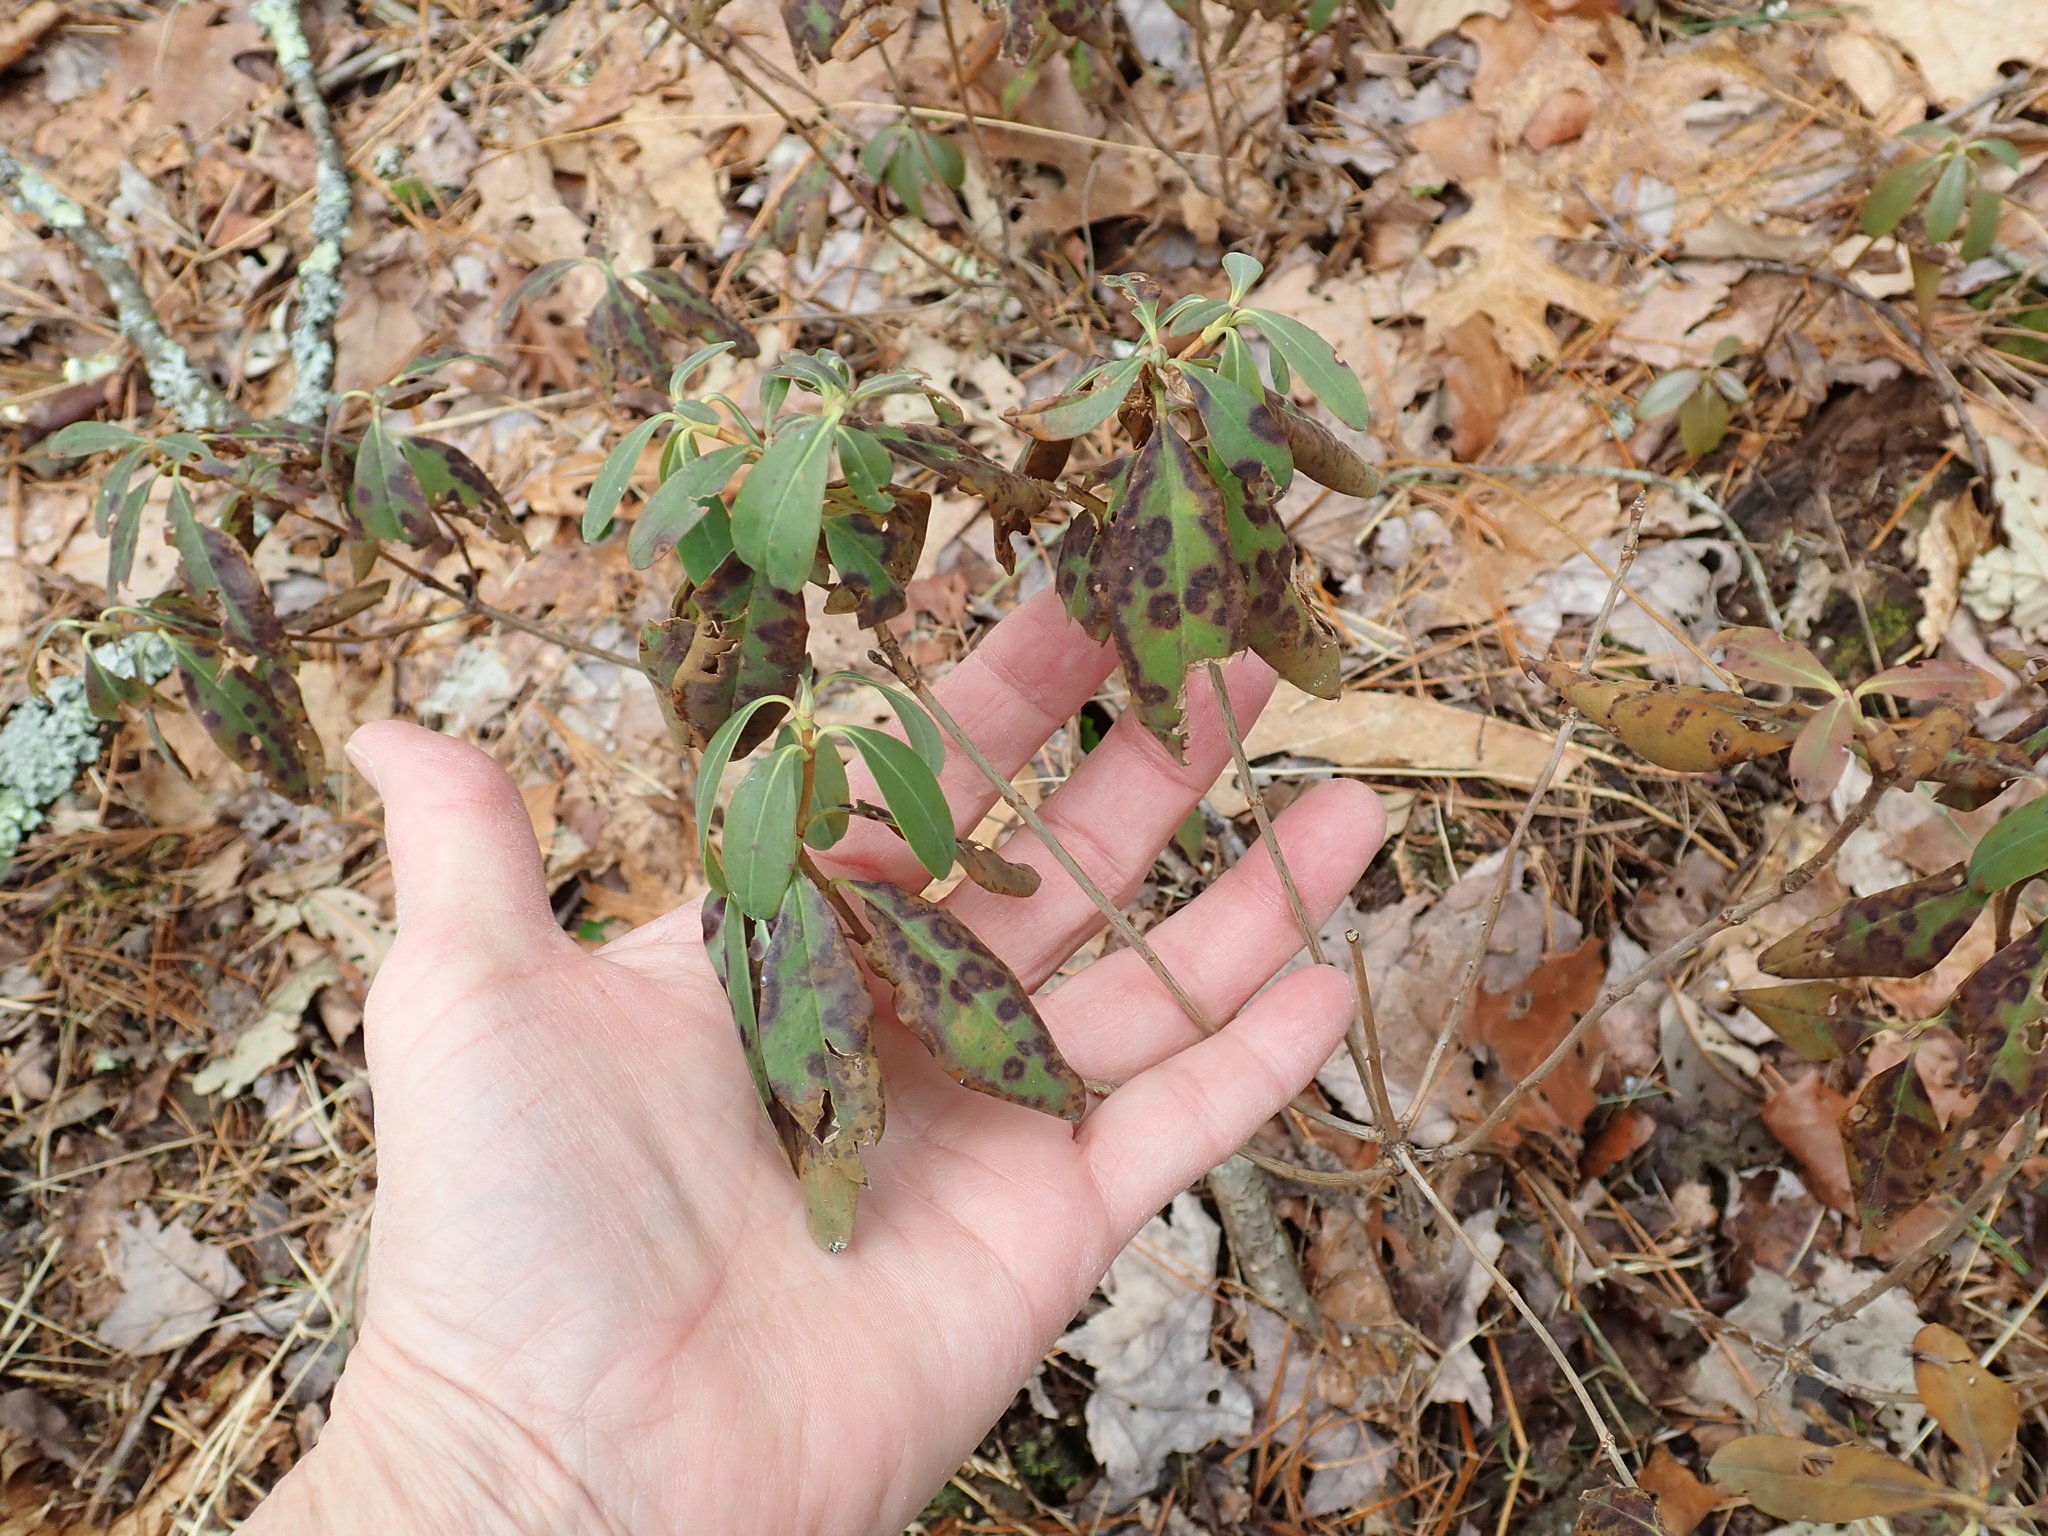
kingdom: Plantae
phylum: Tracheophyta
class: Magnoliopsida
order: Ericales
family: Ericaceae
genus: Kalmia
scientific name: Kalmia angustifolia
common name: Sheep-laurel
